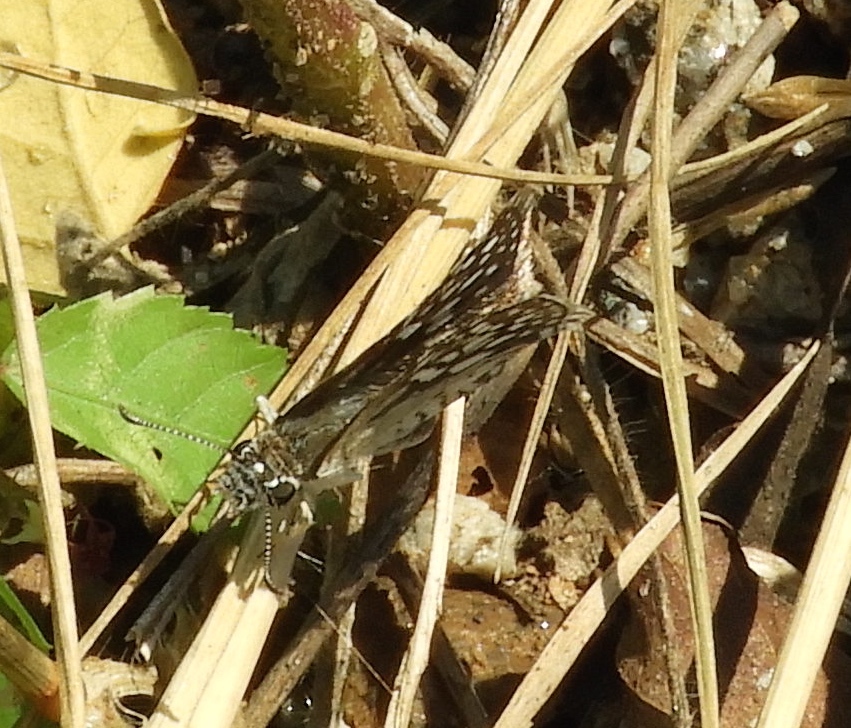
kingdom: Animalia
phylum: Arthropoda
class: Insecta
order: Lepidoptera
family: Hesperiidae
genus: Burnsius
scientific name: Burnsius
